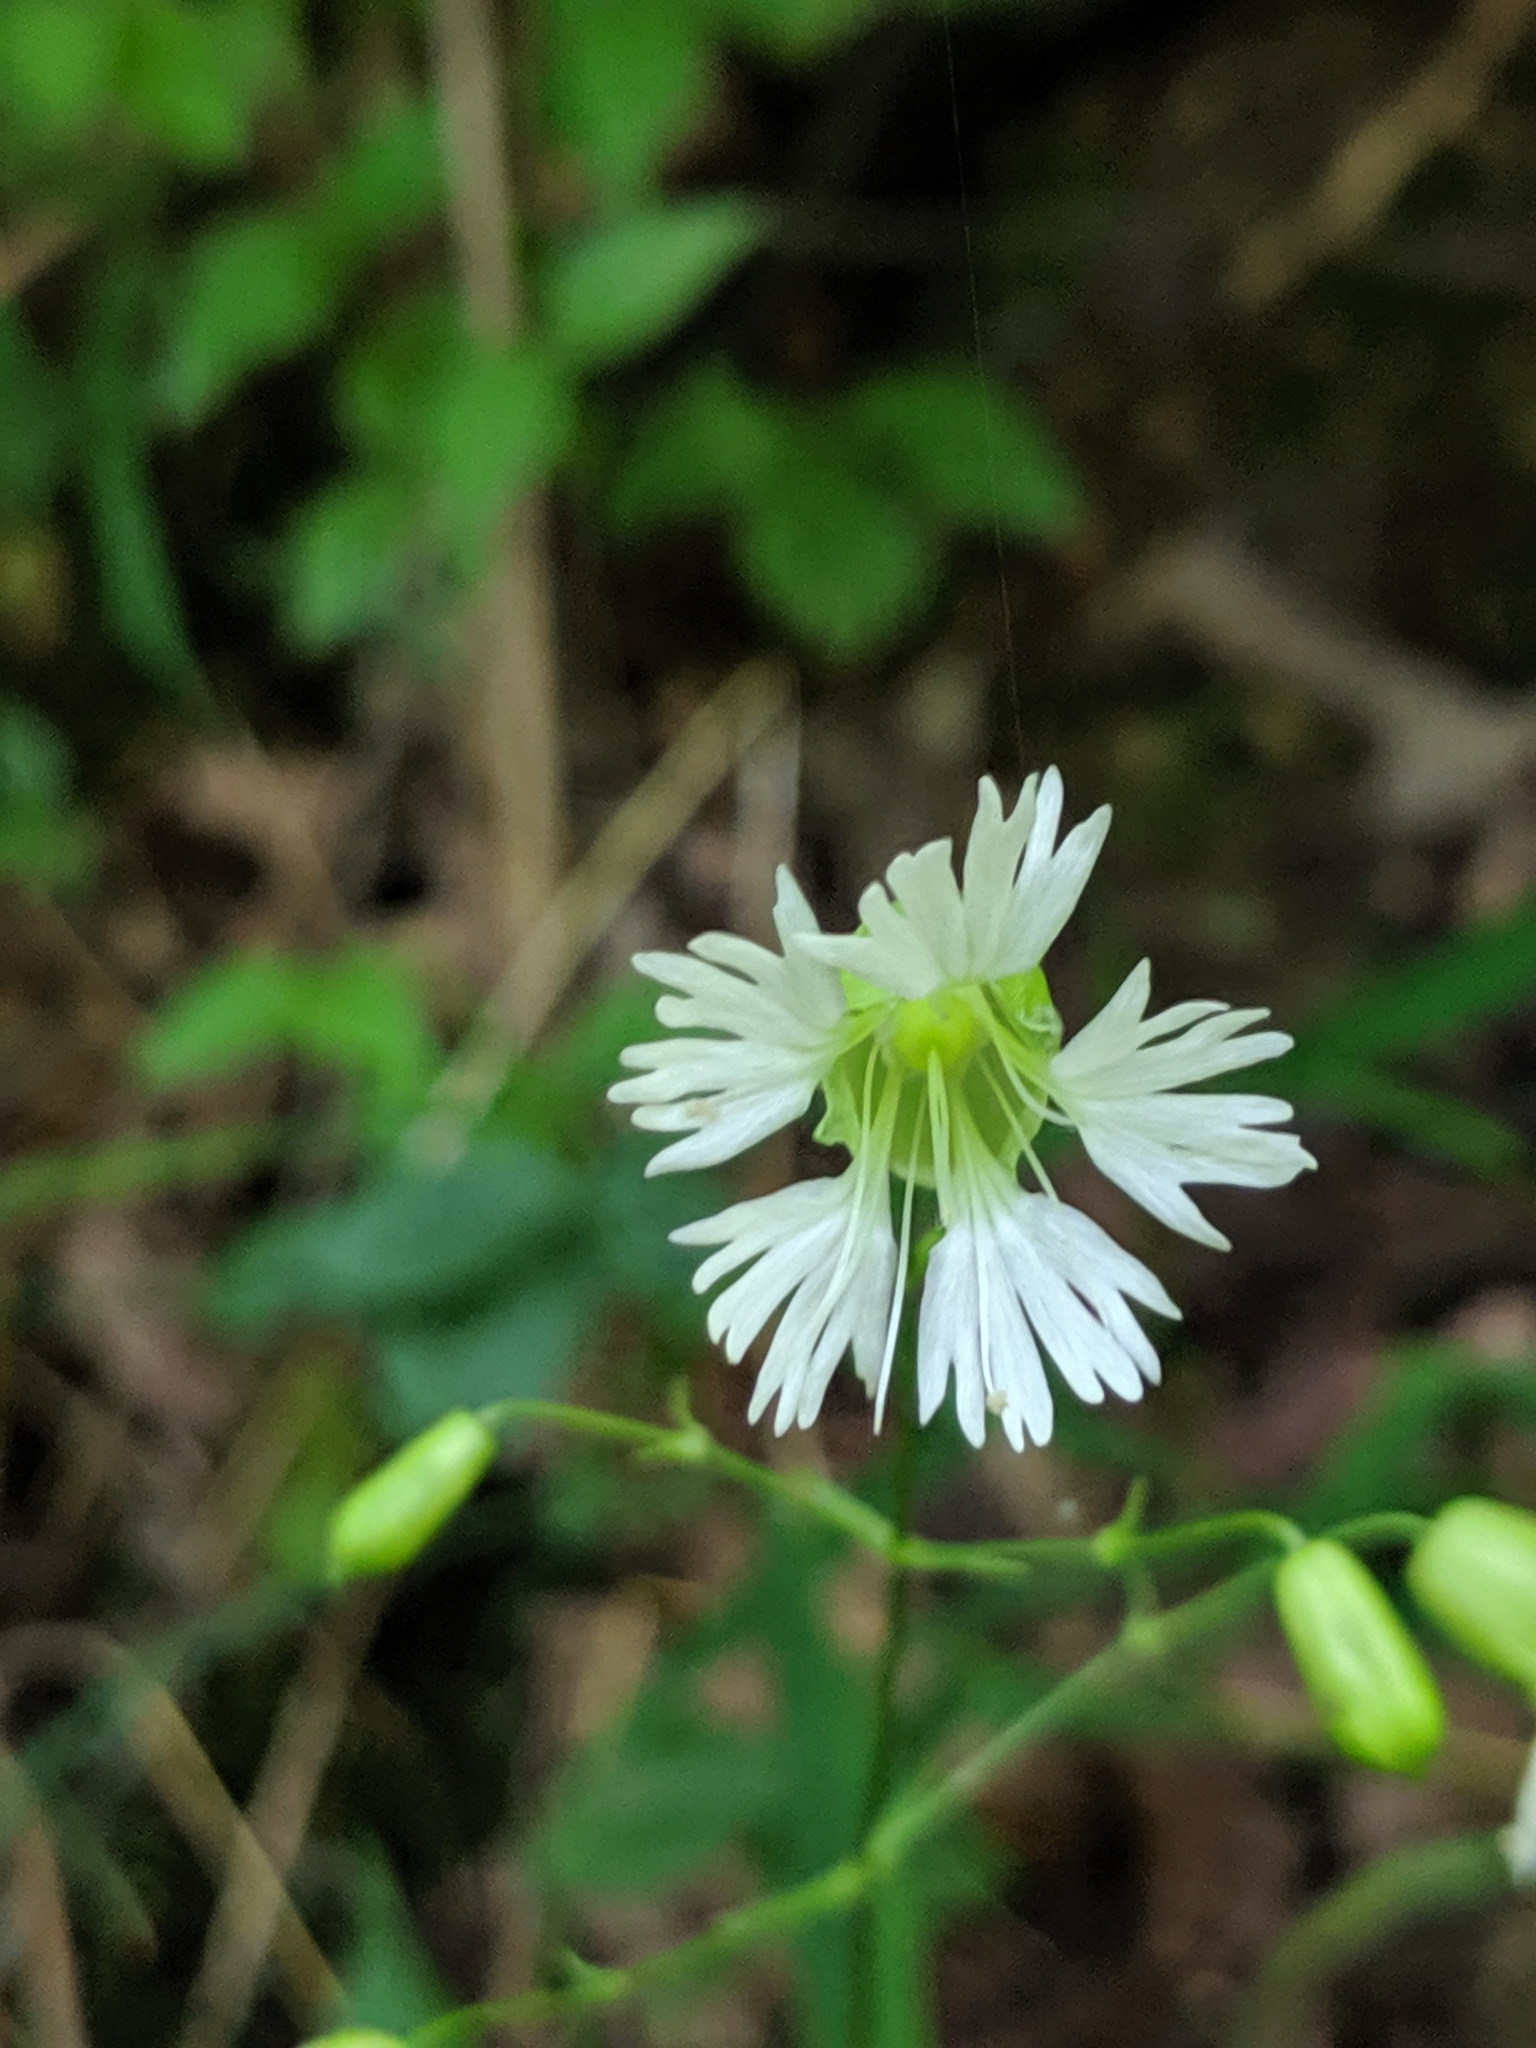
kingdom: Plantae
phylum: Tracheophyta
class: Magnoliopsida
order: Caryophyllales
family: Caryophyllaceae
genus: Silene
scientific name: Silene stellata
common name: Starry campion
